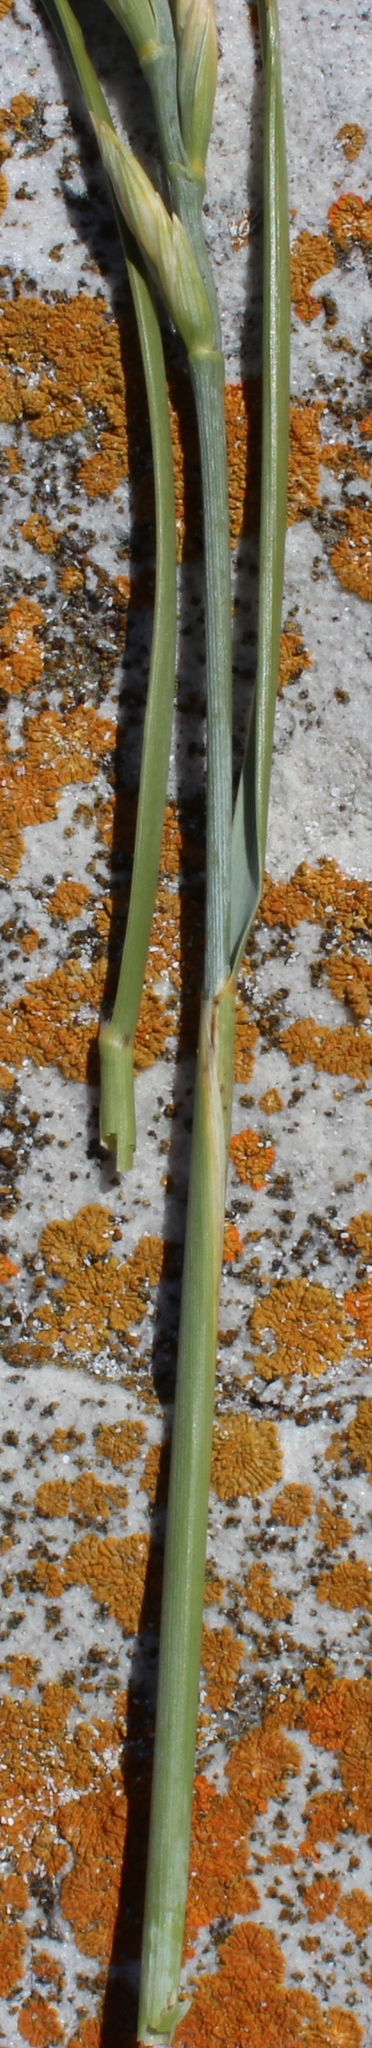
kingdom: Plantae
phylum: Tracheophyta
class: Liliopsida
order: Poales
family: Poaceae
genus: Thinopyrum
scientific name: Thinopyrum distichum
